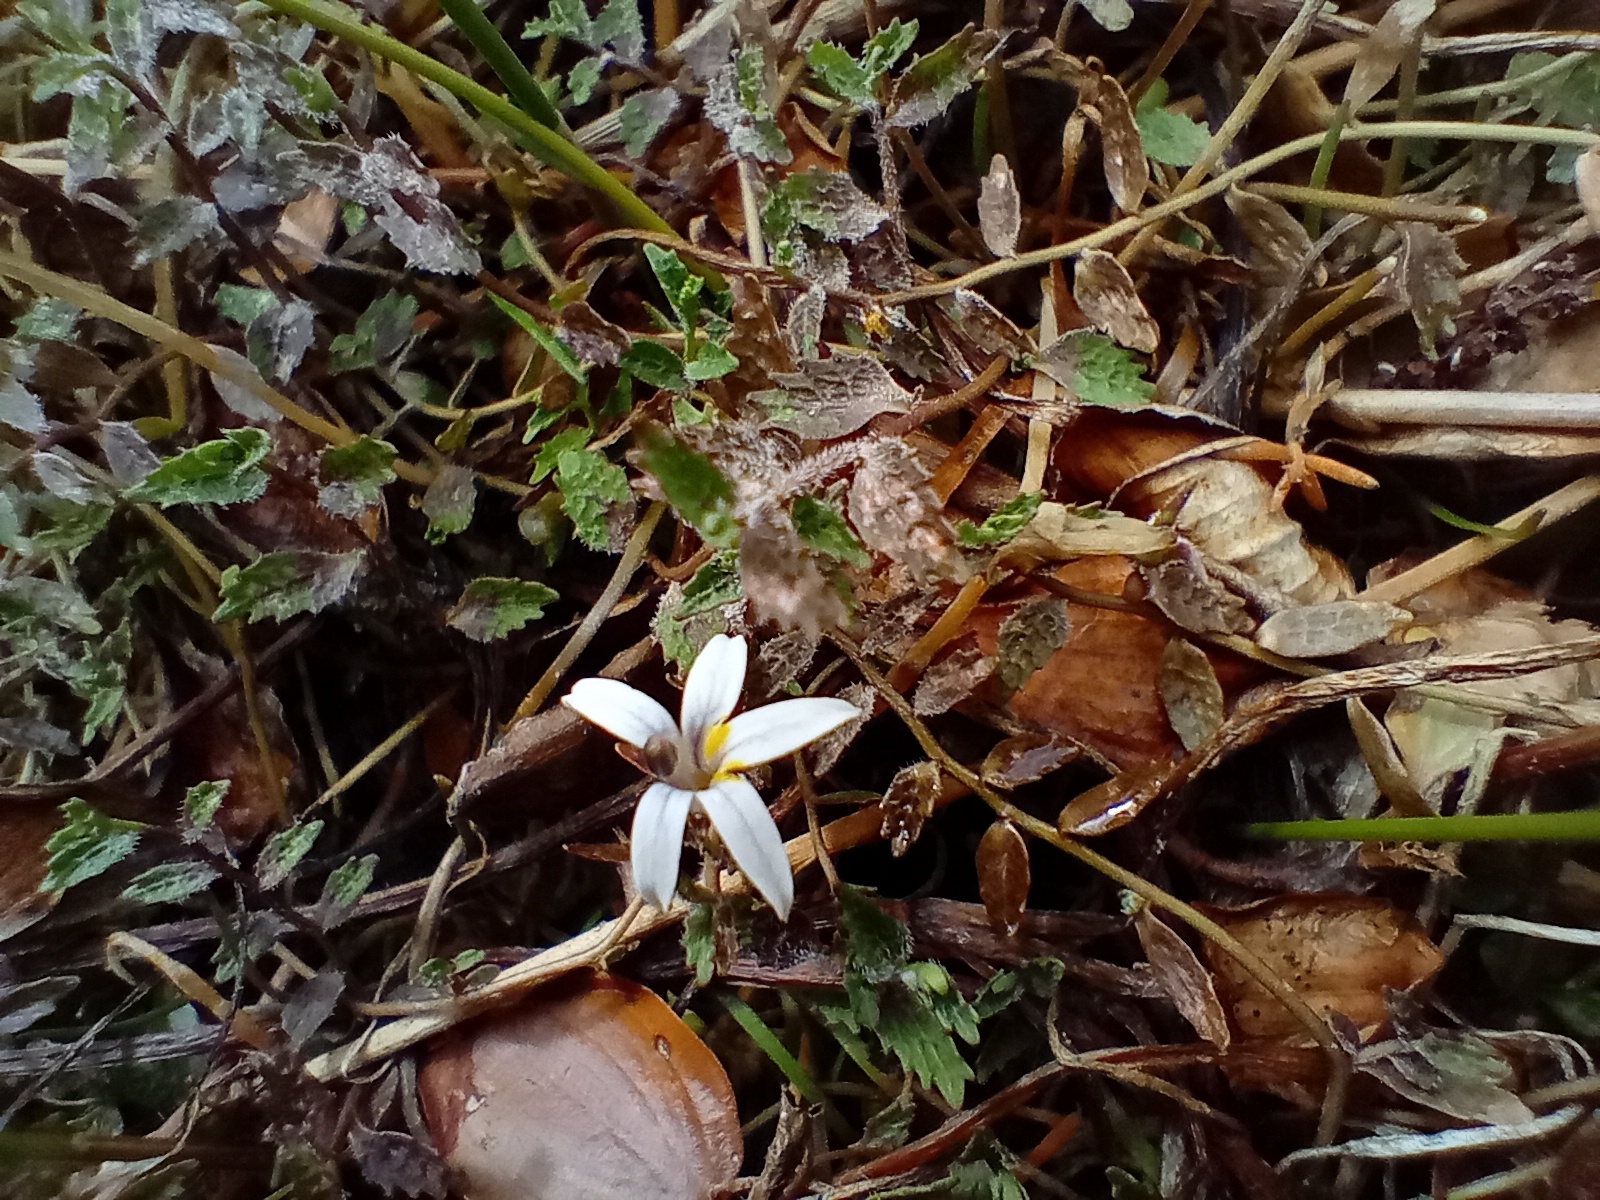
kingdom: Plantae
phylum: Tracheophyta
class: Magnoliopsida
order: Asterales
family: Campanulaceae
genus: Lobelia
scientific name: Lobelia perpusilla
